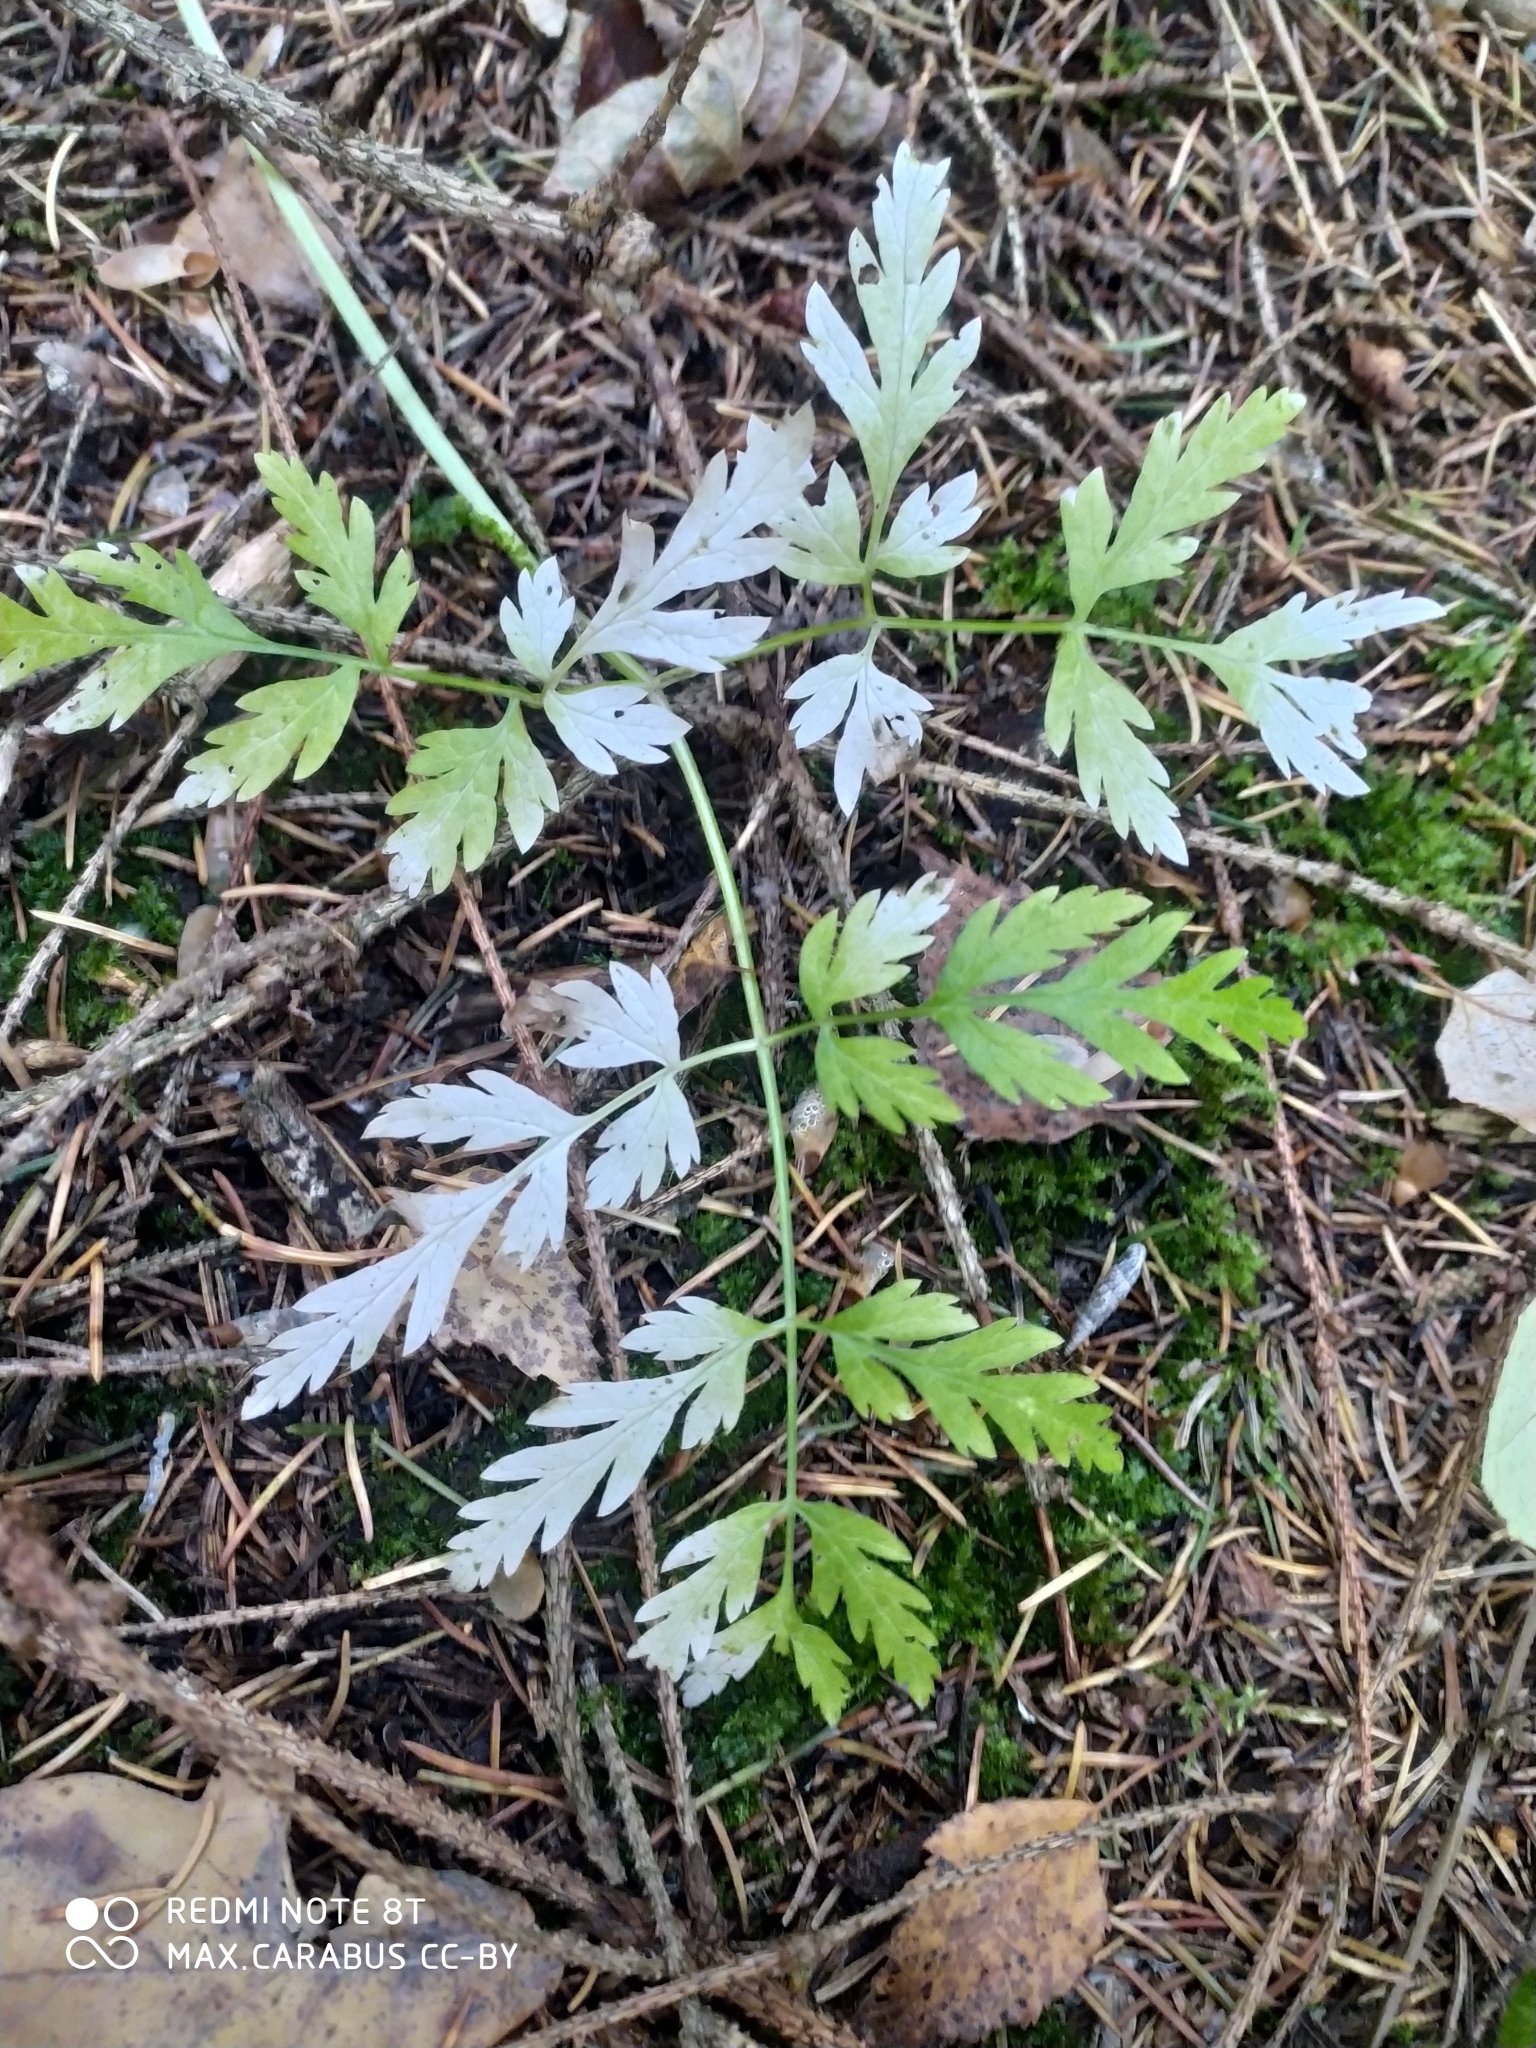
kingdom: Plantae
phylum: Tracheophyta
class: Magnoliopsida
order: Apiales
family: Apiaceae
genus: Anthriscus
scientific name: Anthriscus sylvestris
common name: Cow parsley
